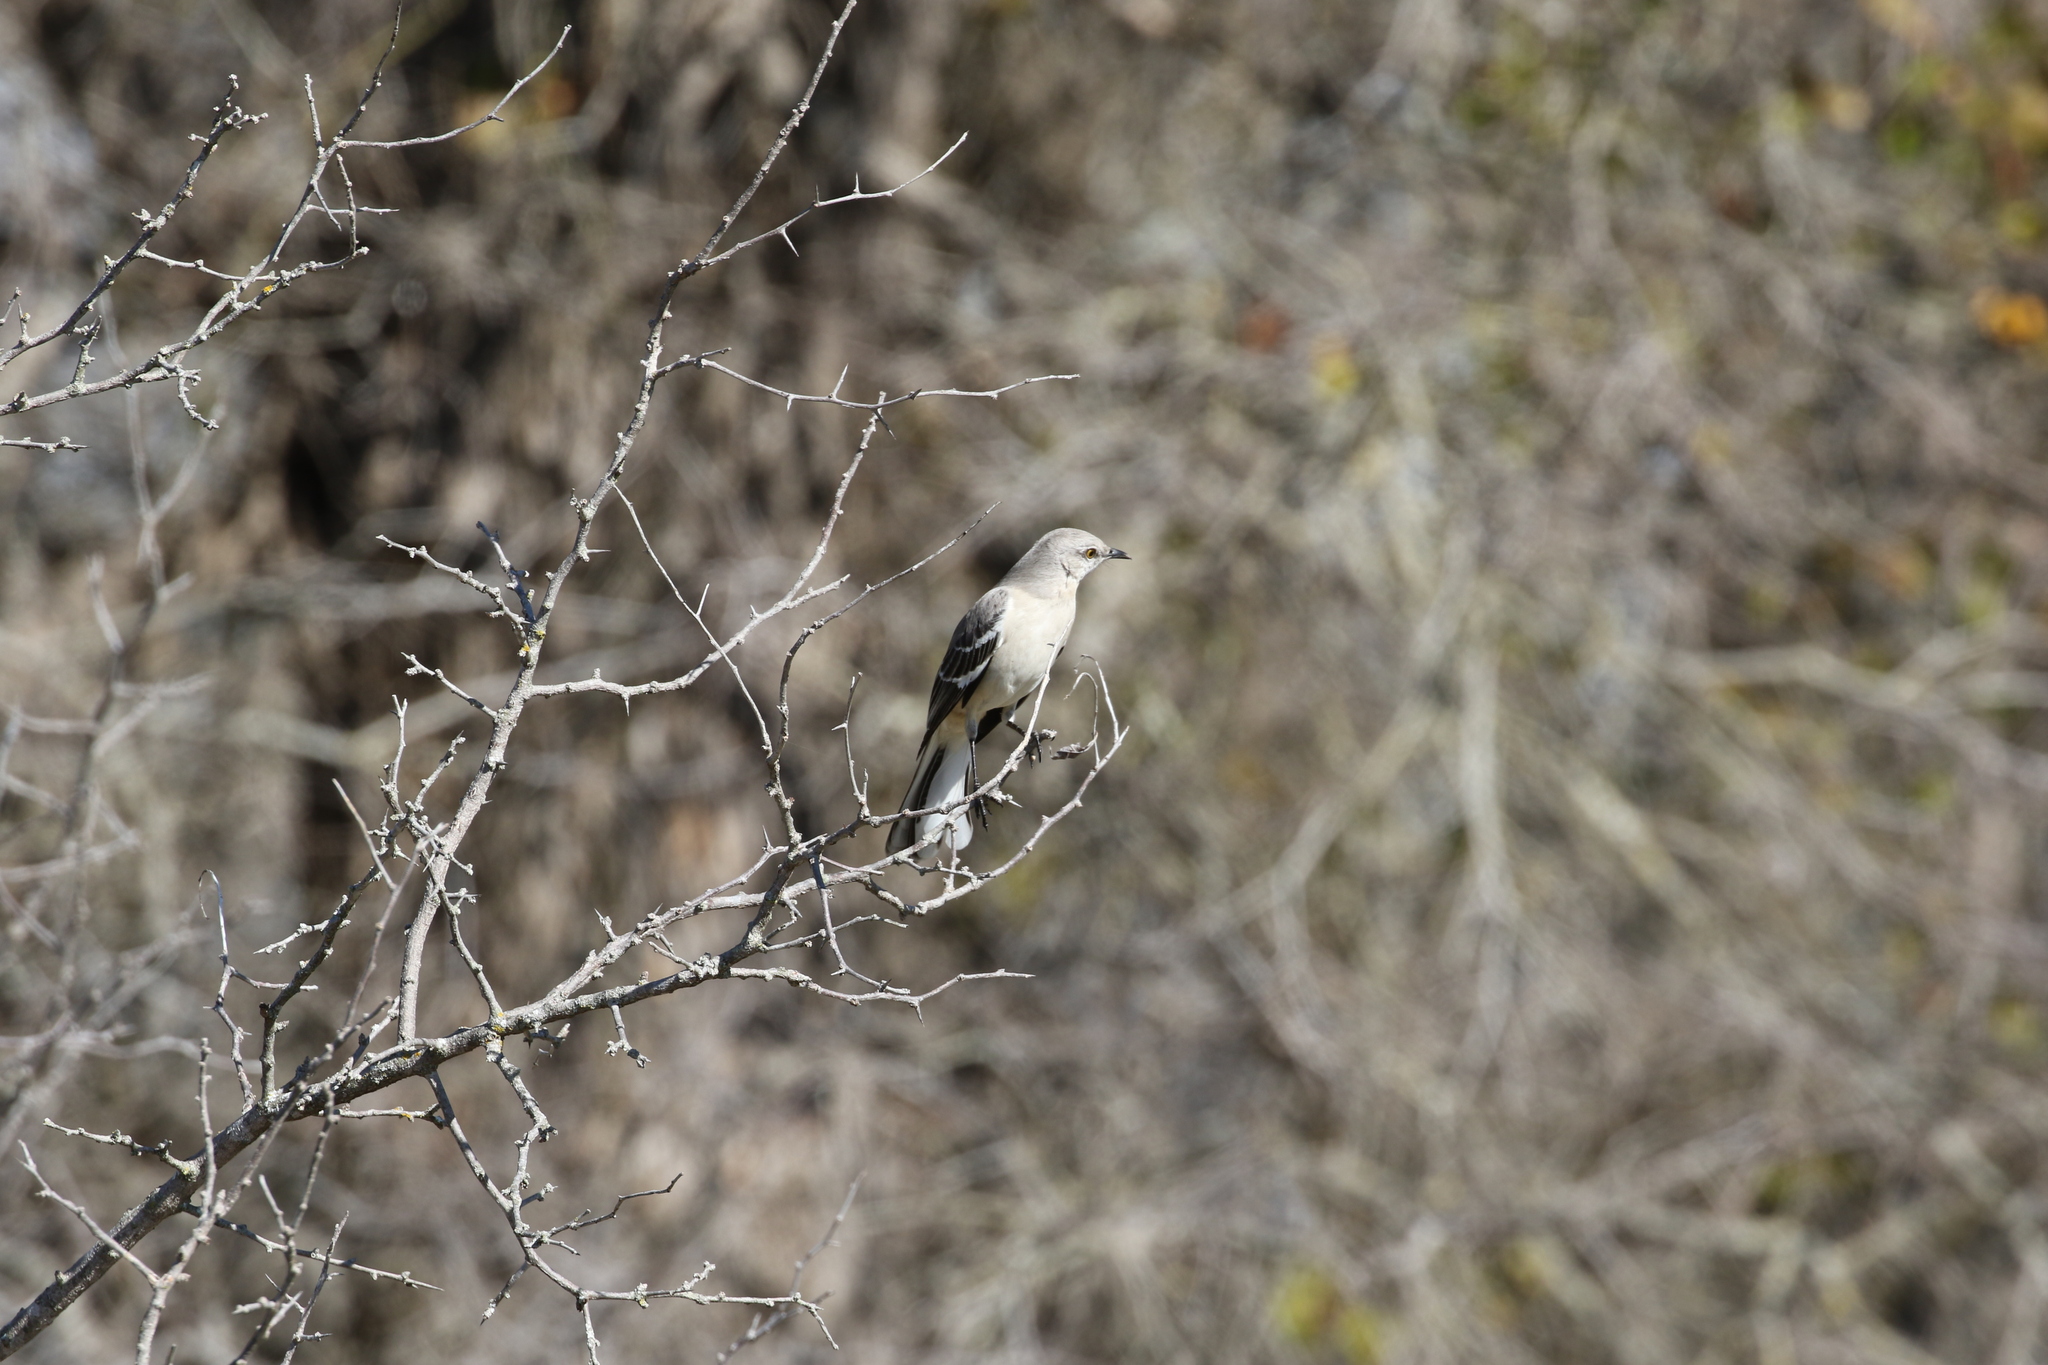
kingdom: Animalia
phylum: Chordata
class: Aves
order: Passeriformes
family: Mimidae
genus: Mimus
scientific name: Mimus polyglottos
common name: Northern mockingbird
